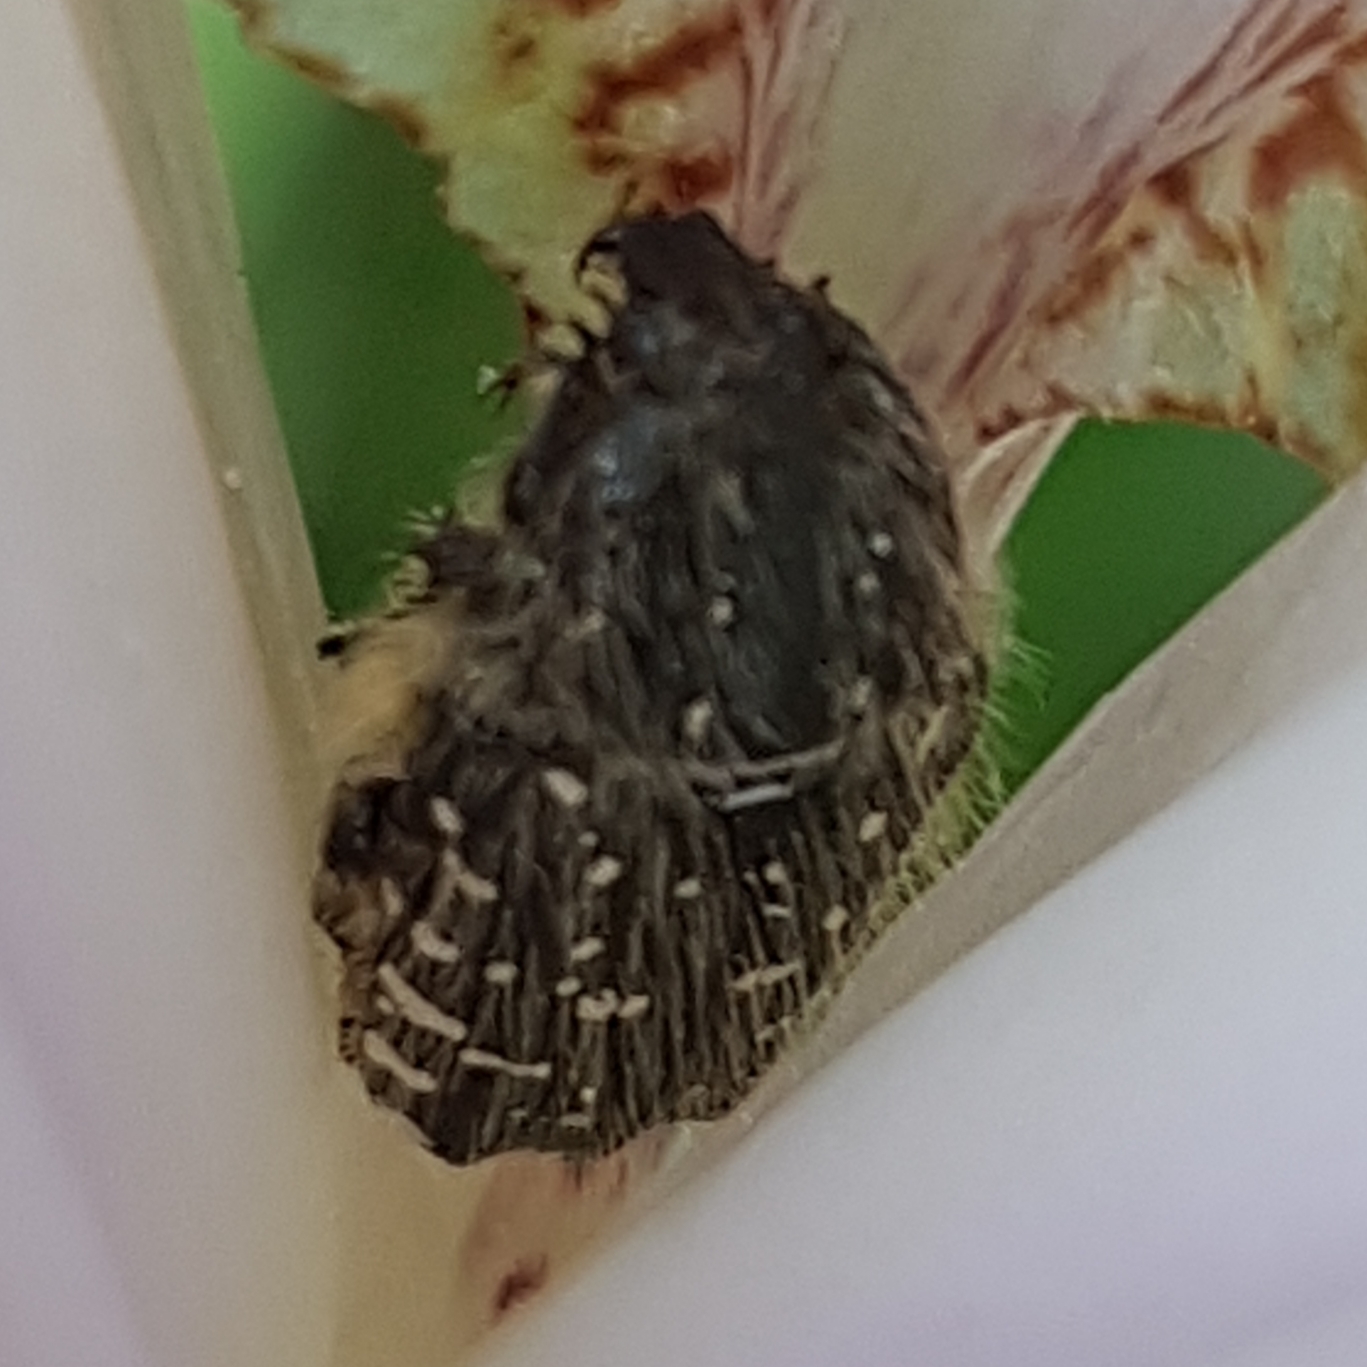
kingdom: Animalia
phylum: Arthropoda
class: Insecta
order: Coleoptera
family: Scarabaeidae
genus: Oxythyrea
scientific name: Oxythyrea funesta
